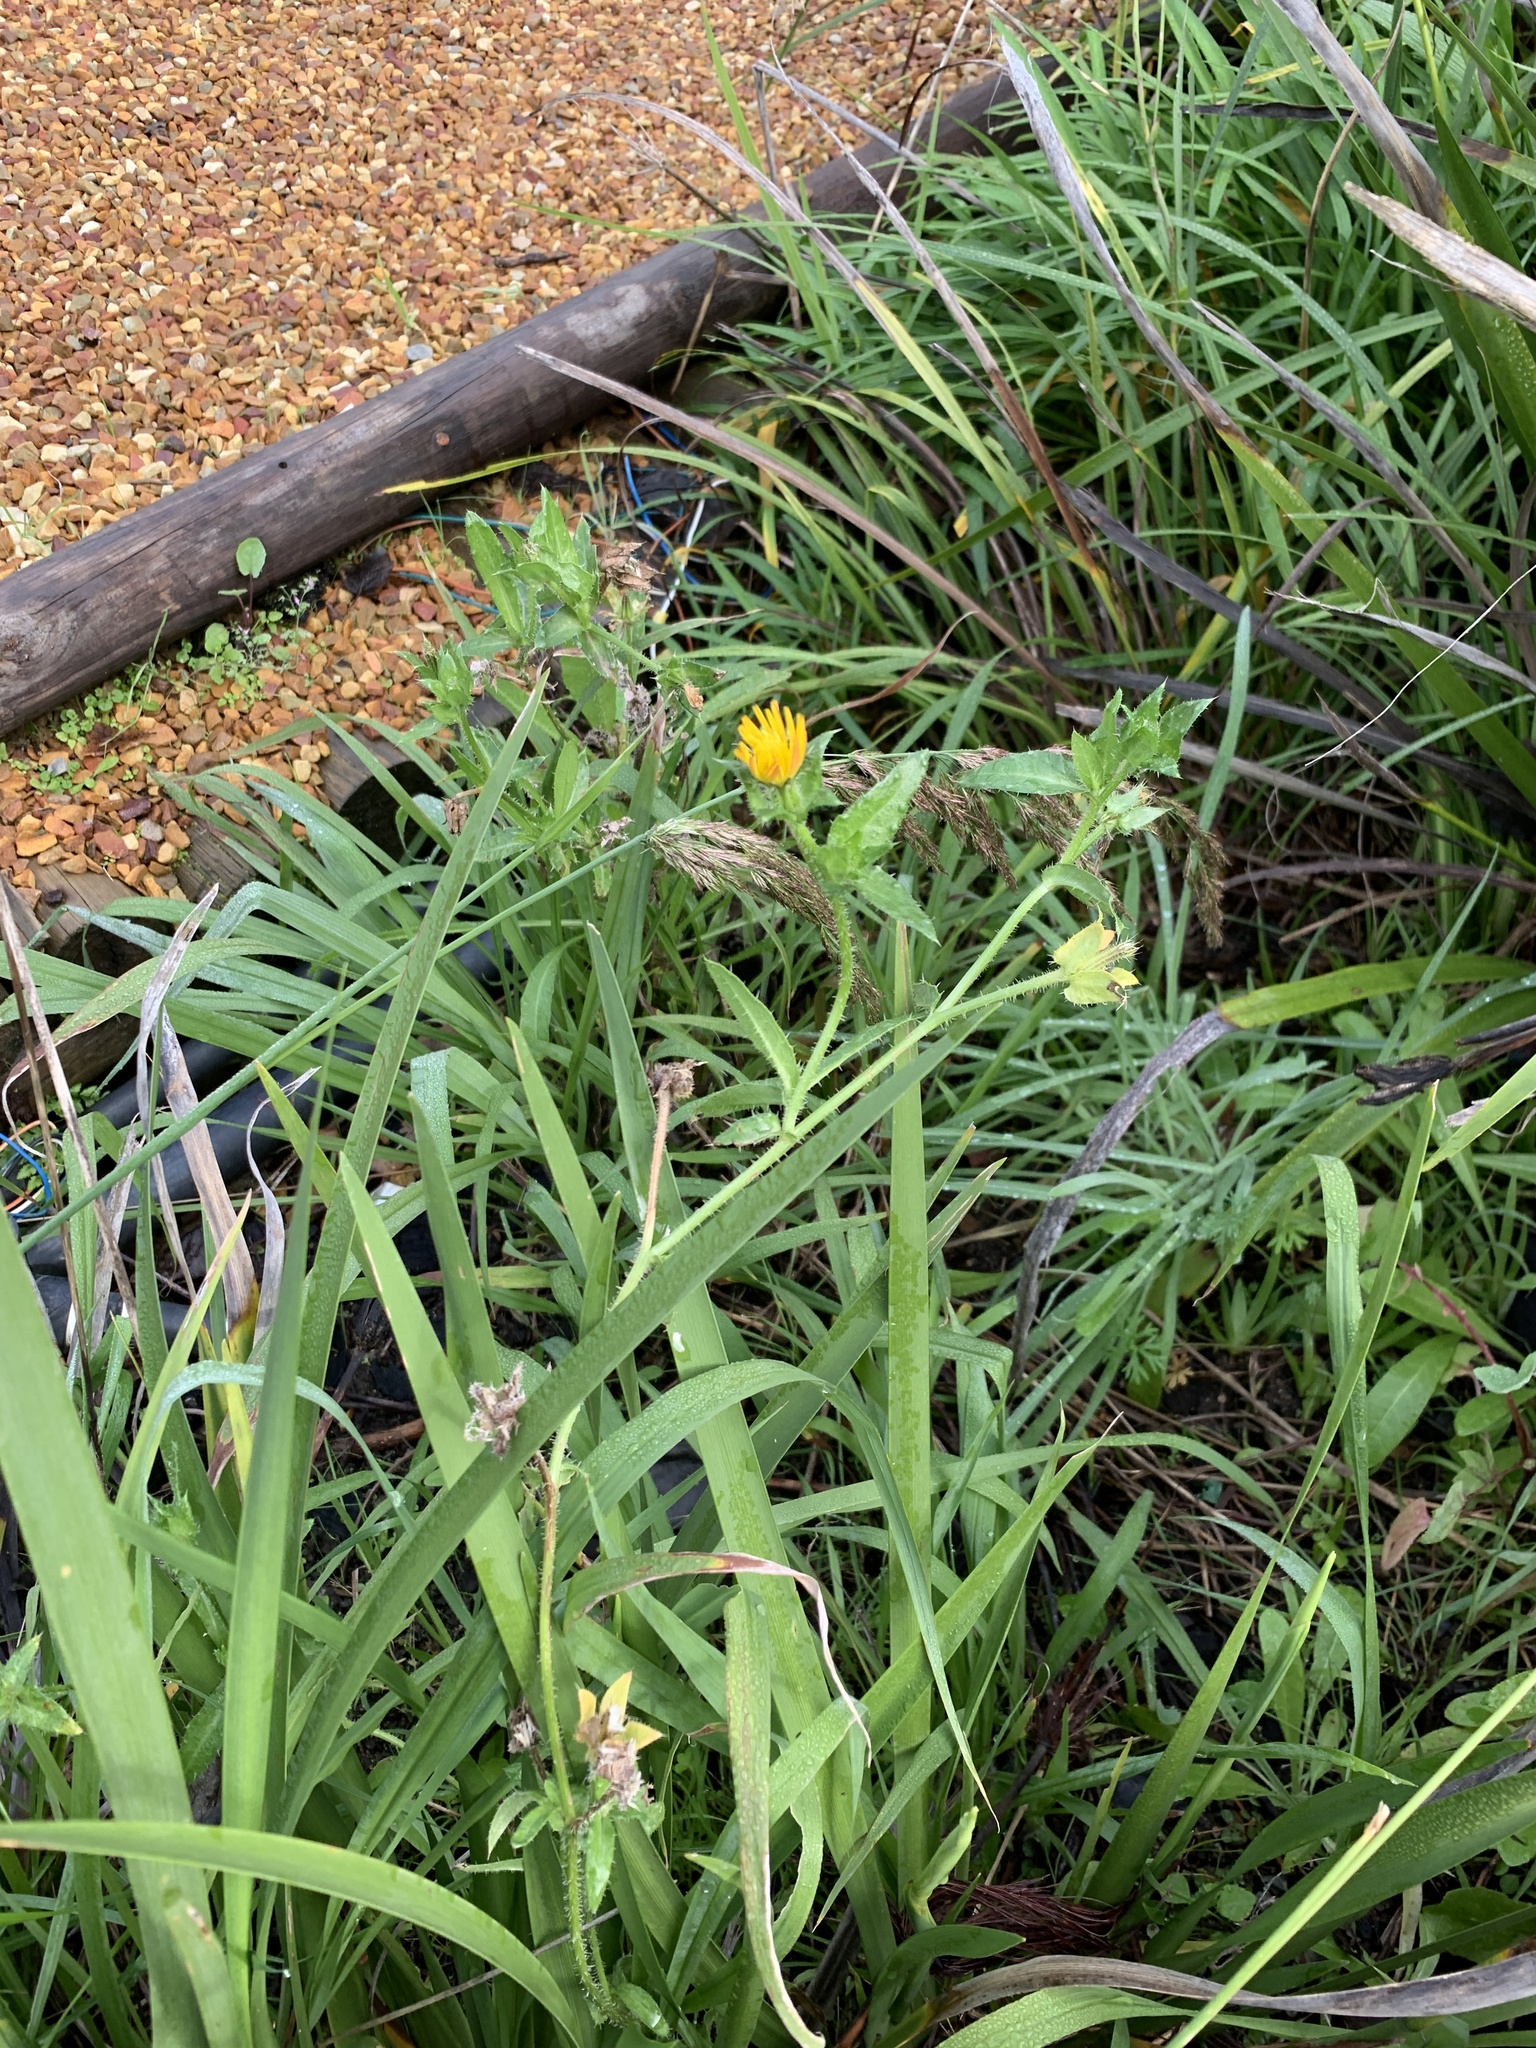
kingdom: Plantae
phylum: Tracheophyta
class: Magnoliopsida
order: Asterales
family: Asteraceae
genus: Helminthotheca
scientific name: Helminthotheca echioides
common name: Ox-tongue
